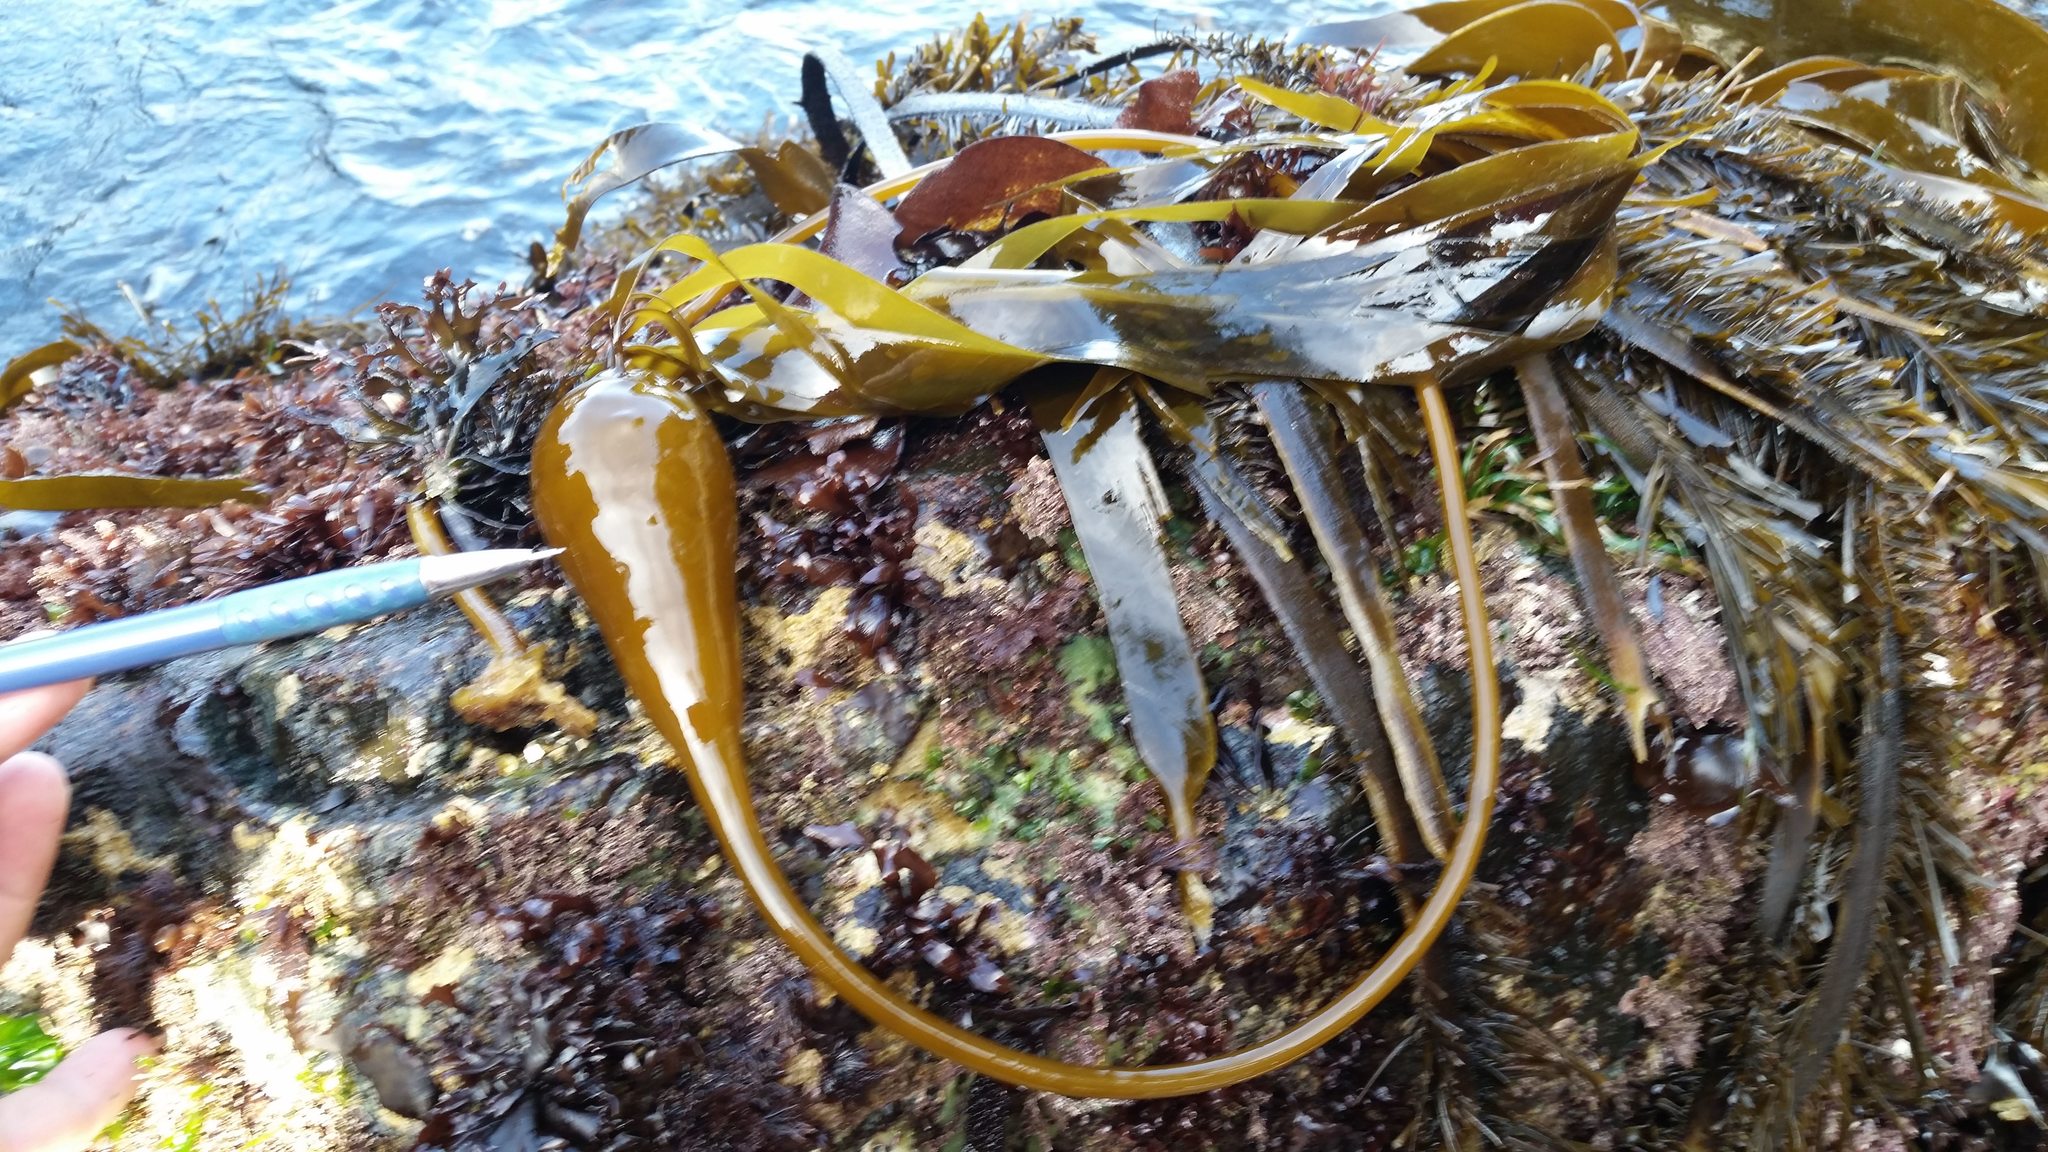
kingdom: Chromista
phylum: Ochrophyta
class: Phaeophyceae
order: Laminariales
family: Laminariaceae
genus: Nereocystis
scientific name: Nereocystis luetkeana
